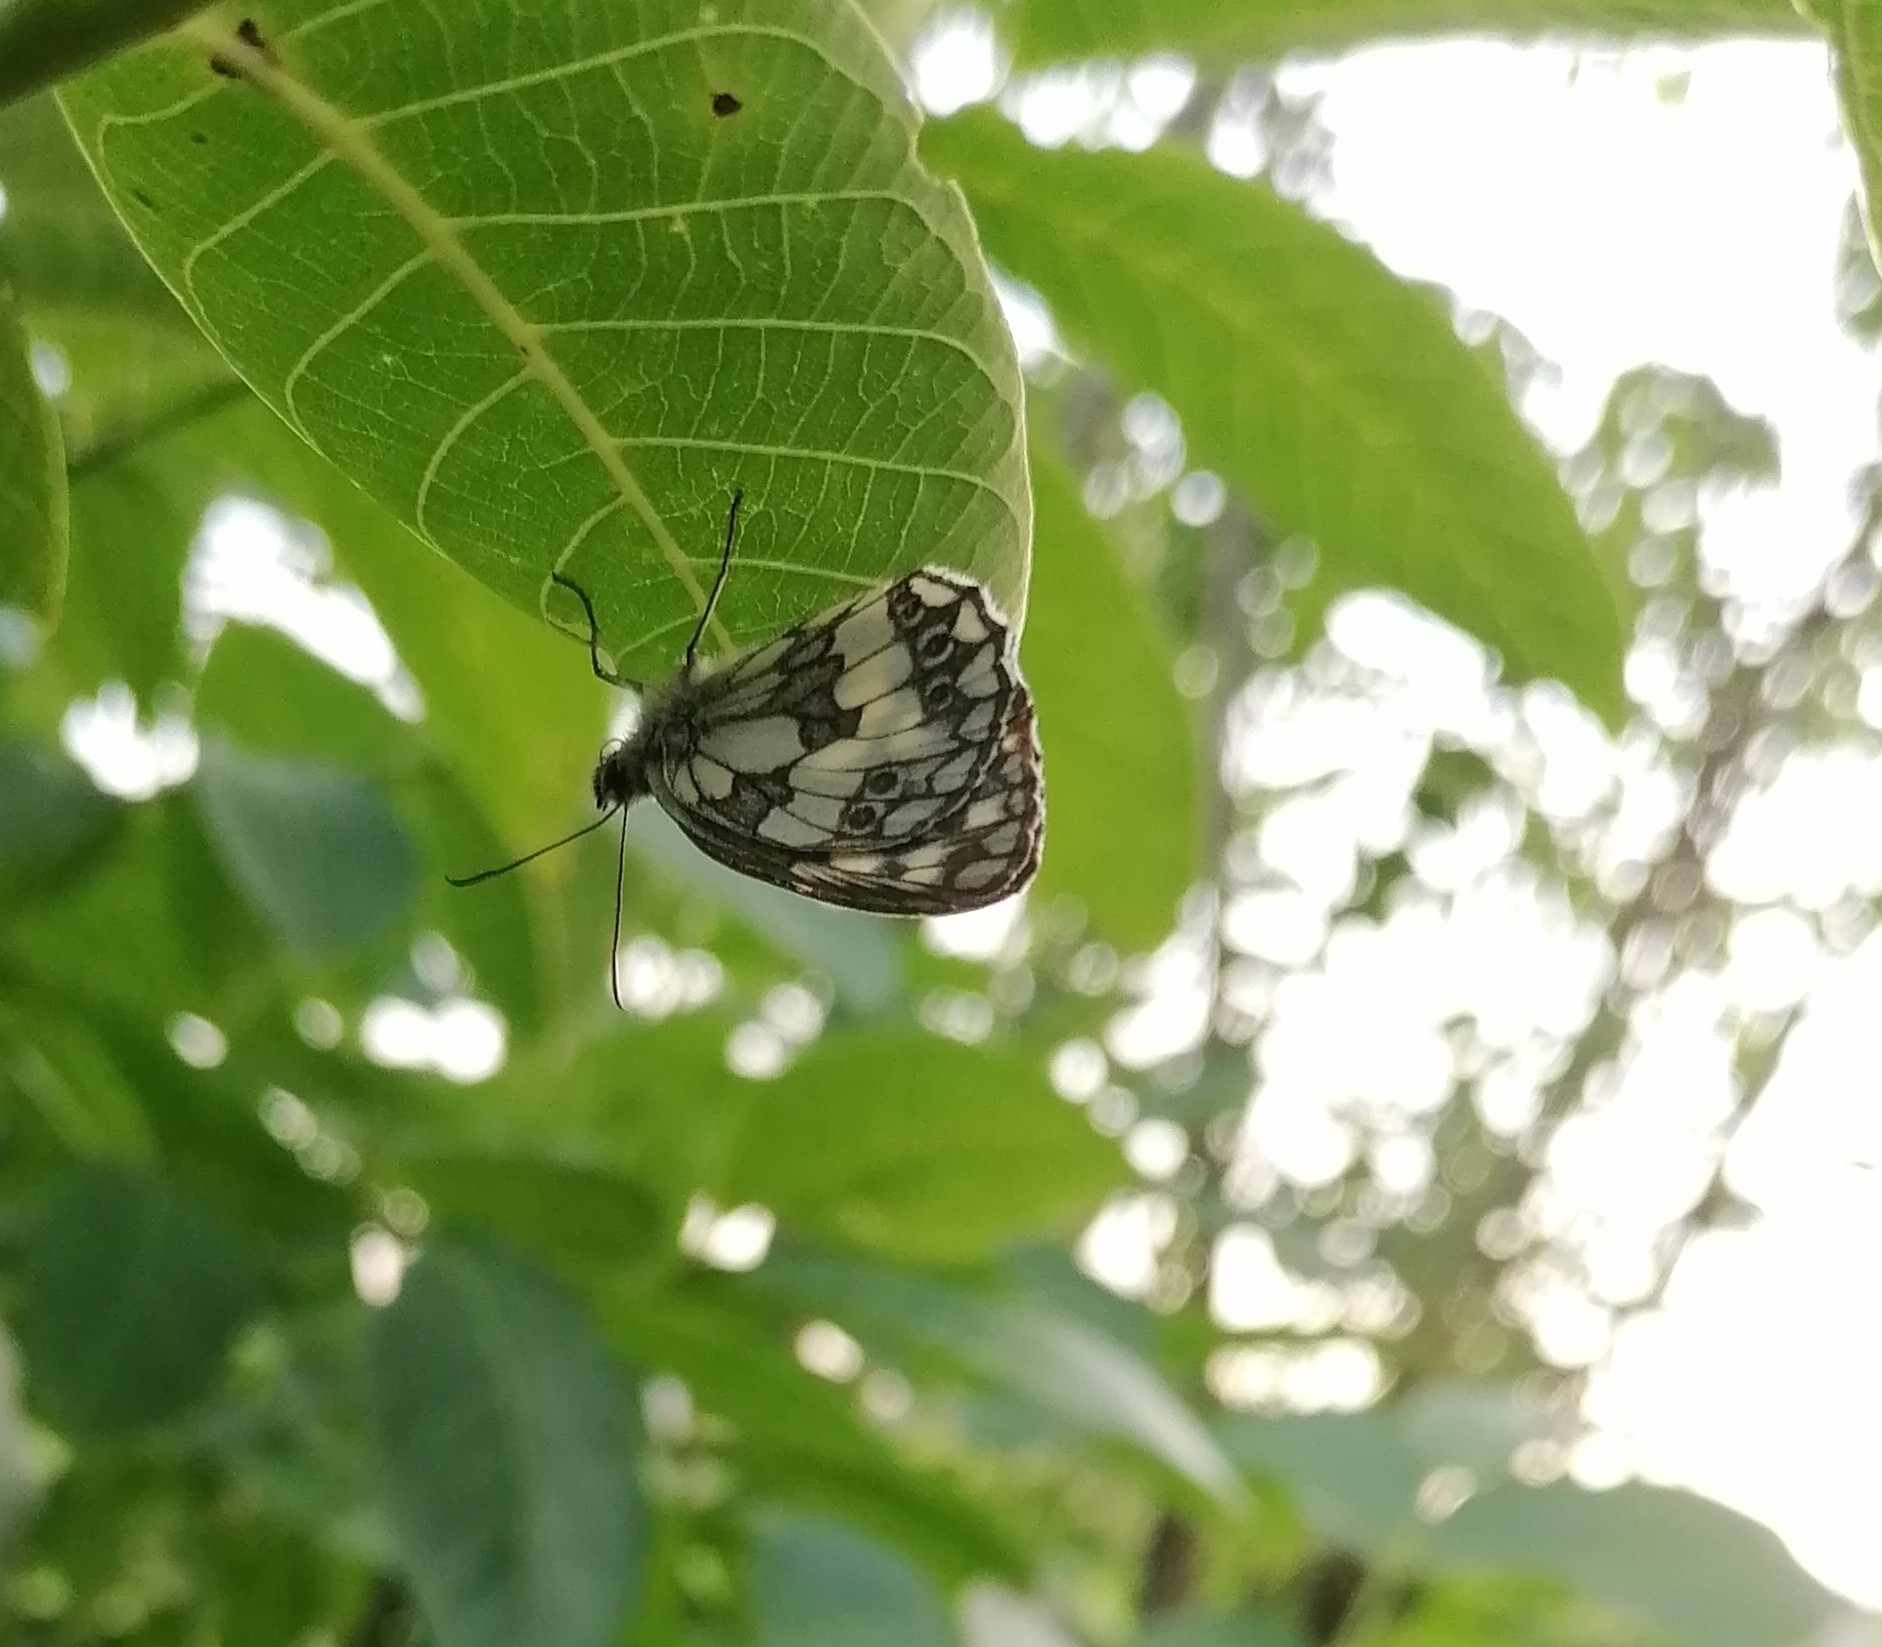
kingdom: Animalia
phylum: Arthropoda
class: Insecta
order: Lepidoptera
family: Nymphalidae
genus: Melanargia
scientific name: Melanargia galathea
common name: Marbled white
